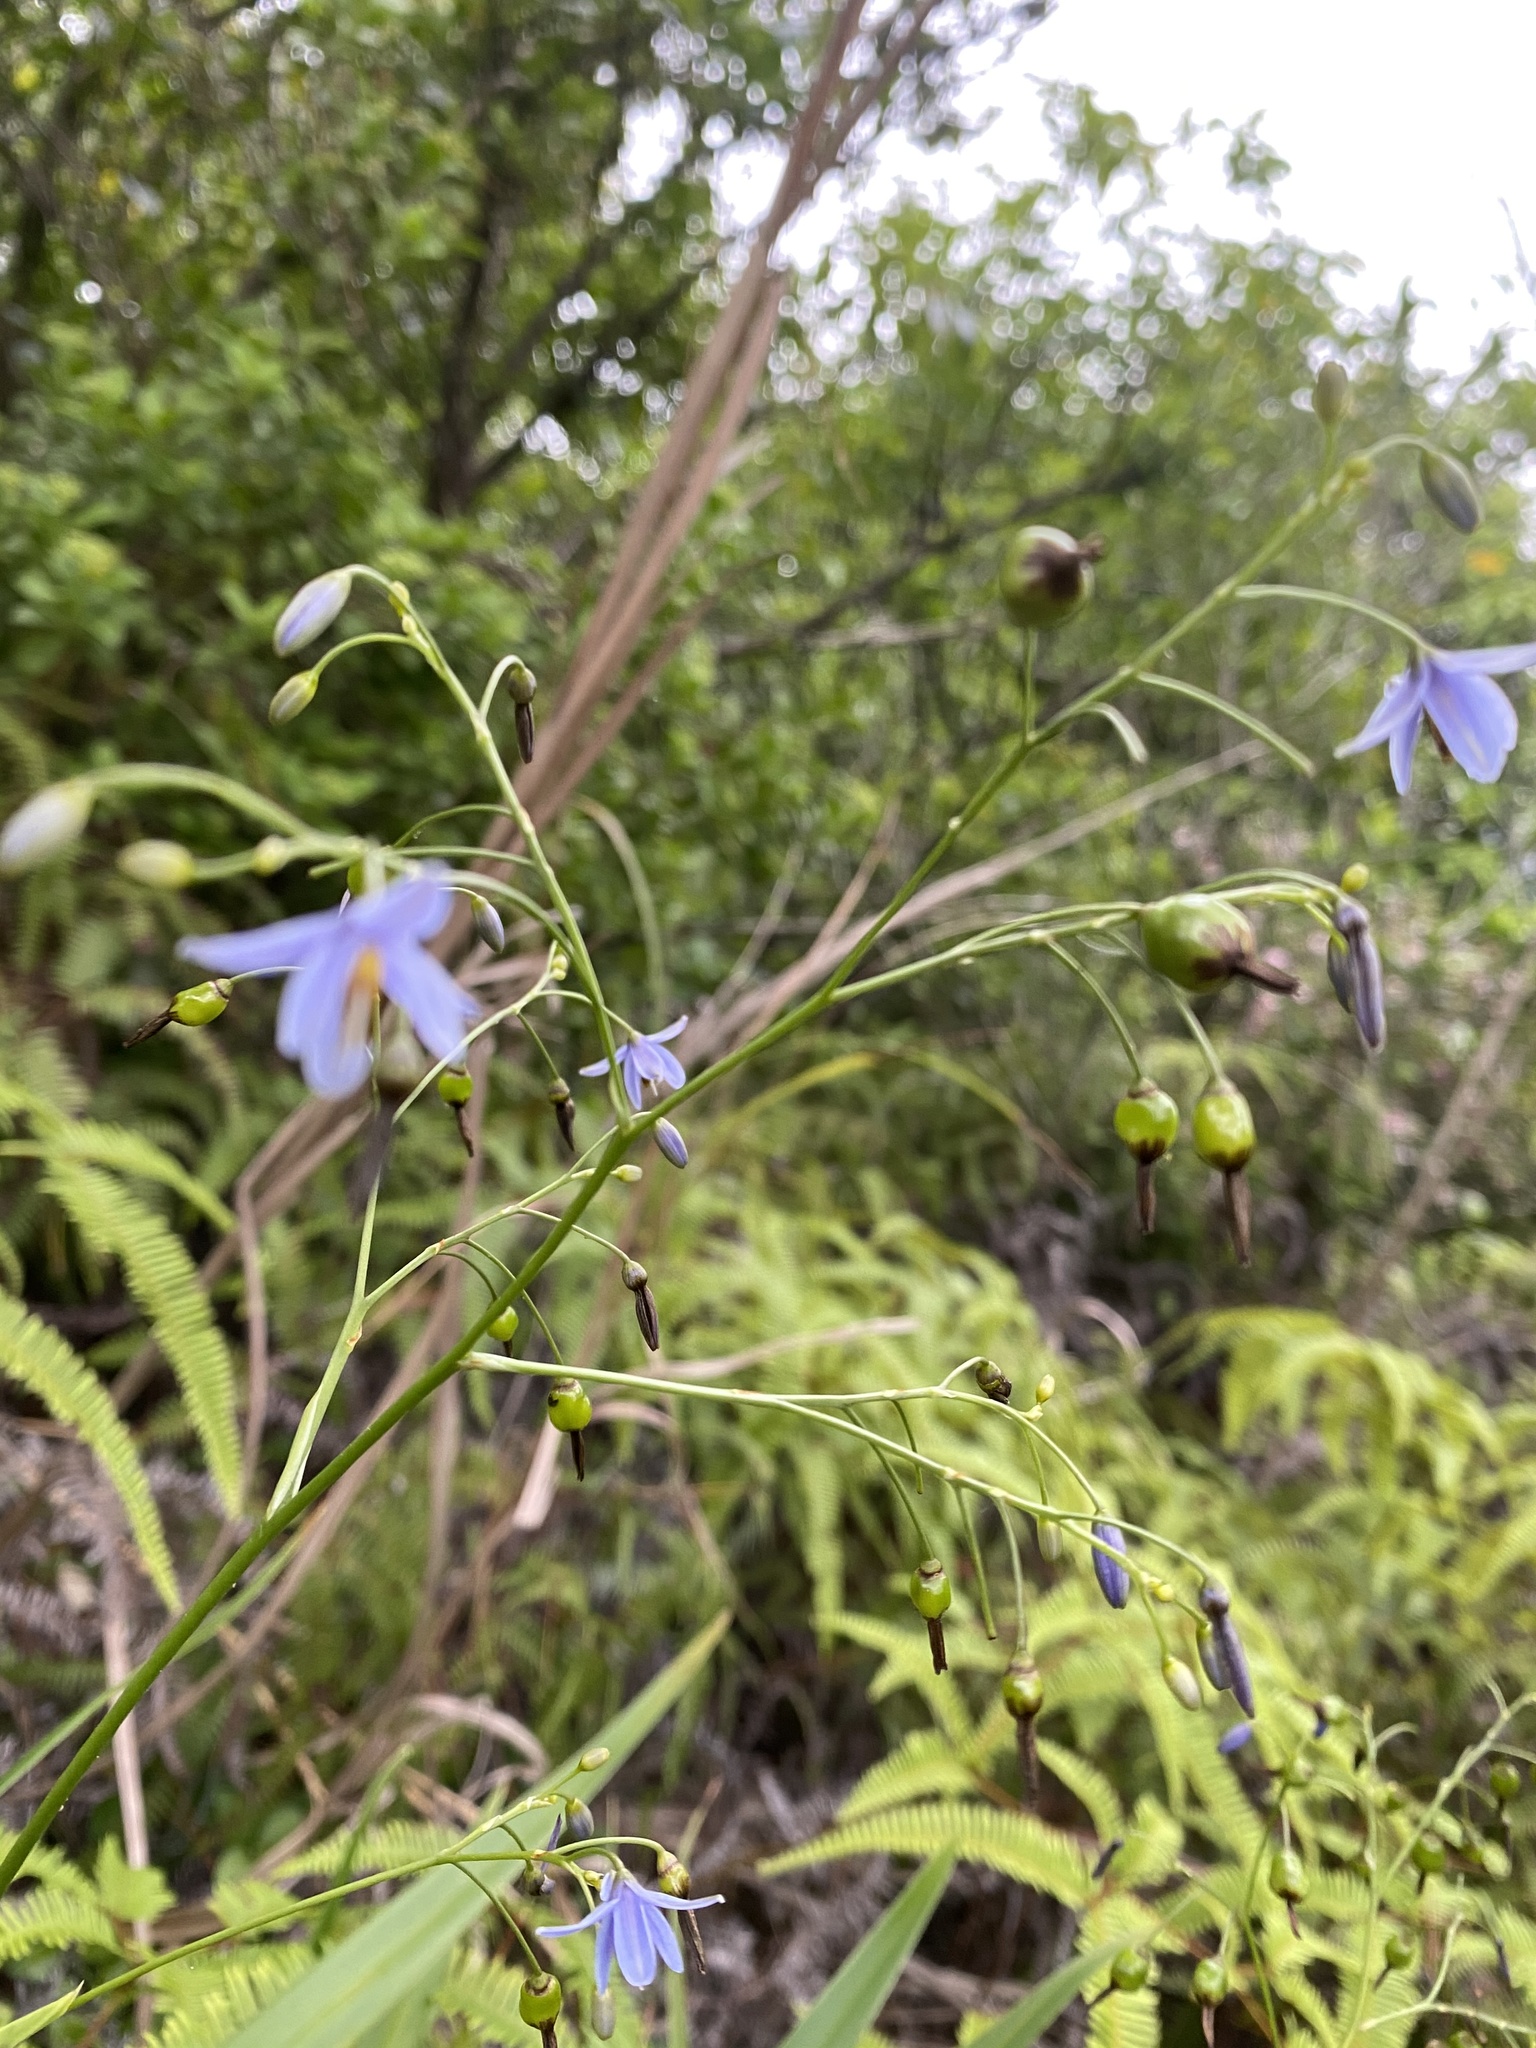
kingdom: Plantae
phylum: Tracheophyta
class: Liliopsida
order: Asparagales
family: Asphodelaceae
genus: Dianella
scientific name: Dianella ensifolia
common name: New zealand lilyplant
